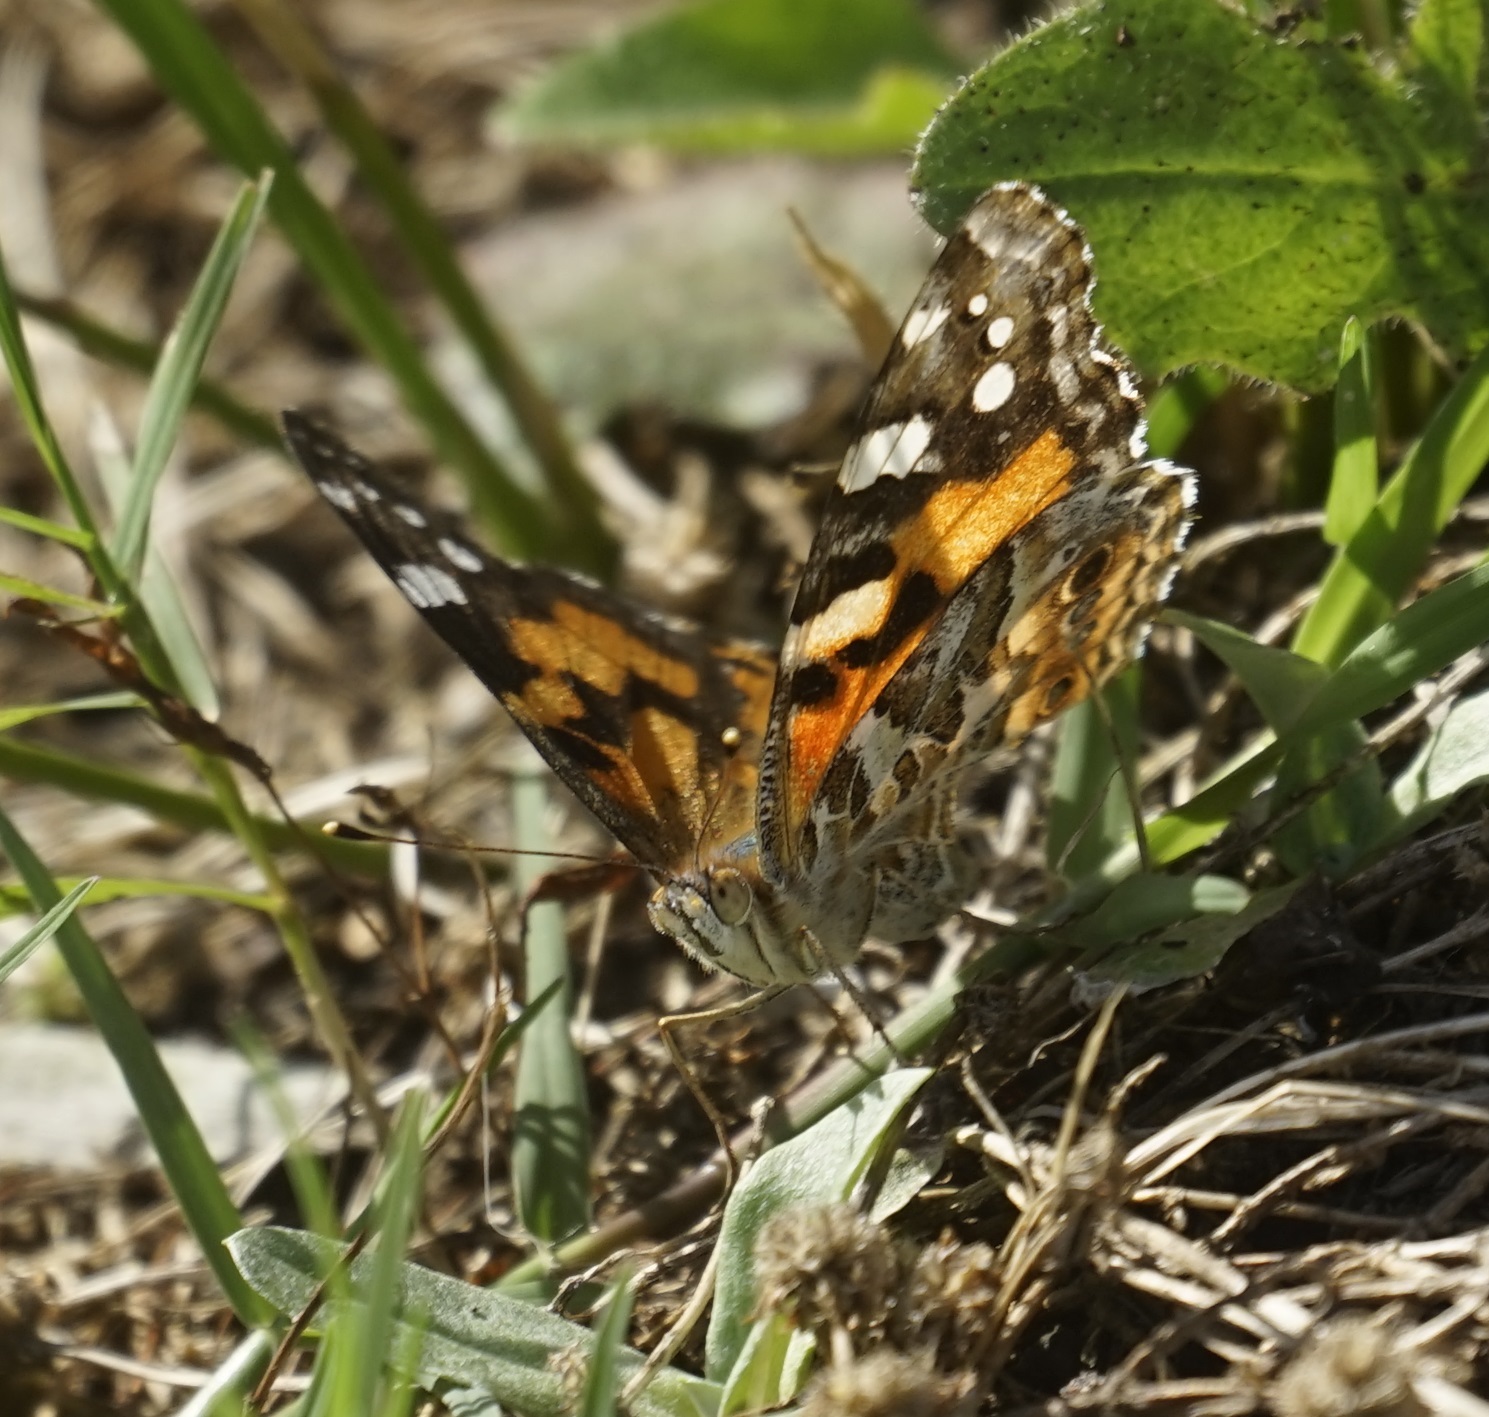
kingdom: Animalia
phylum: Arthropoda
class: Insecta
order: Lepidoptera
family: Nymphalidae
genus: Vanessa
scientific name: Vanessa kershawi
